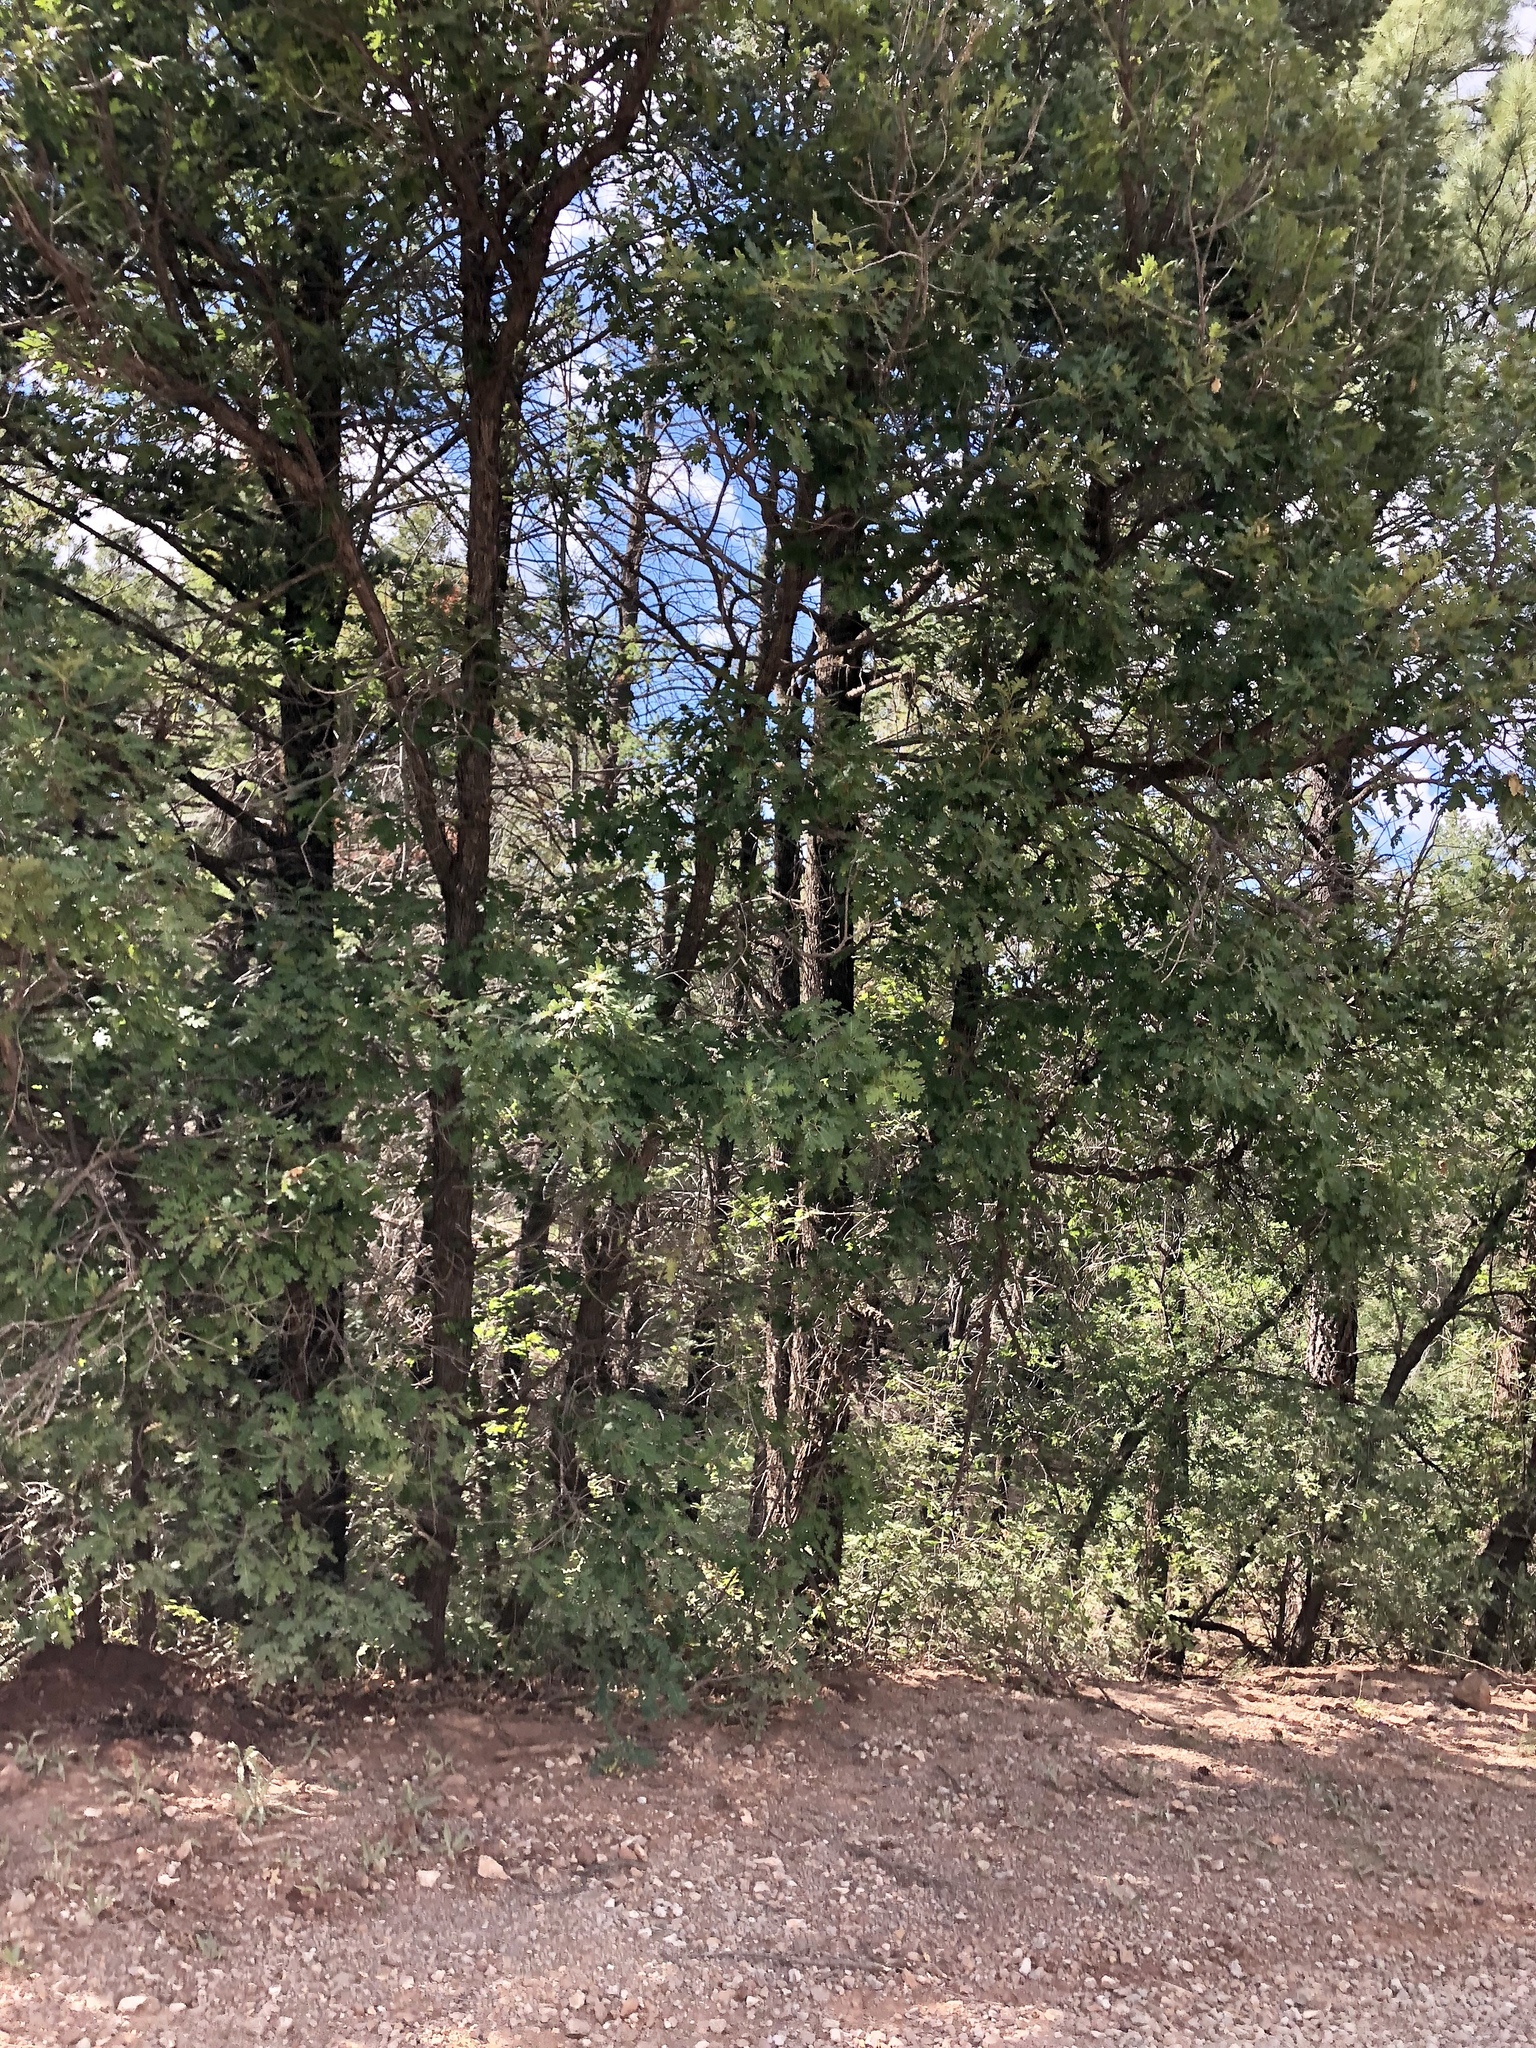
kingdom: Plantae
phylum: Tracheophyta
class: Magnoliopsida
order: Fagales
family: Fagaceae
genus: Quercus
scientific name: Quercus gambelii
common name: Gambel oak
